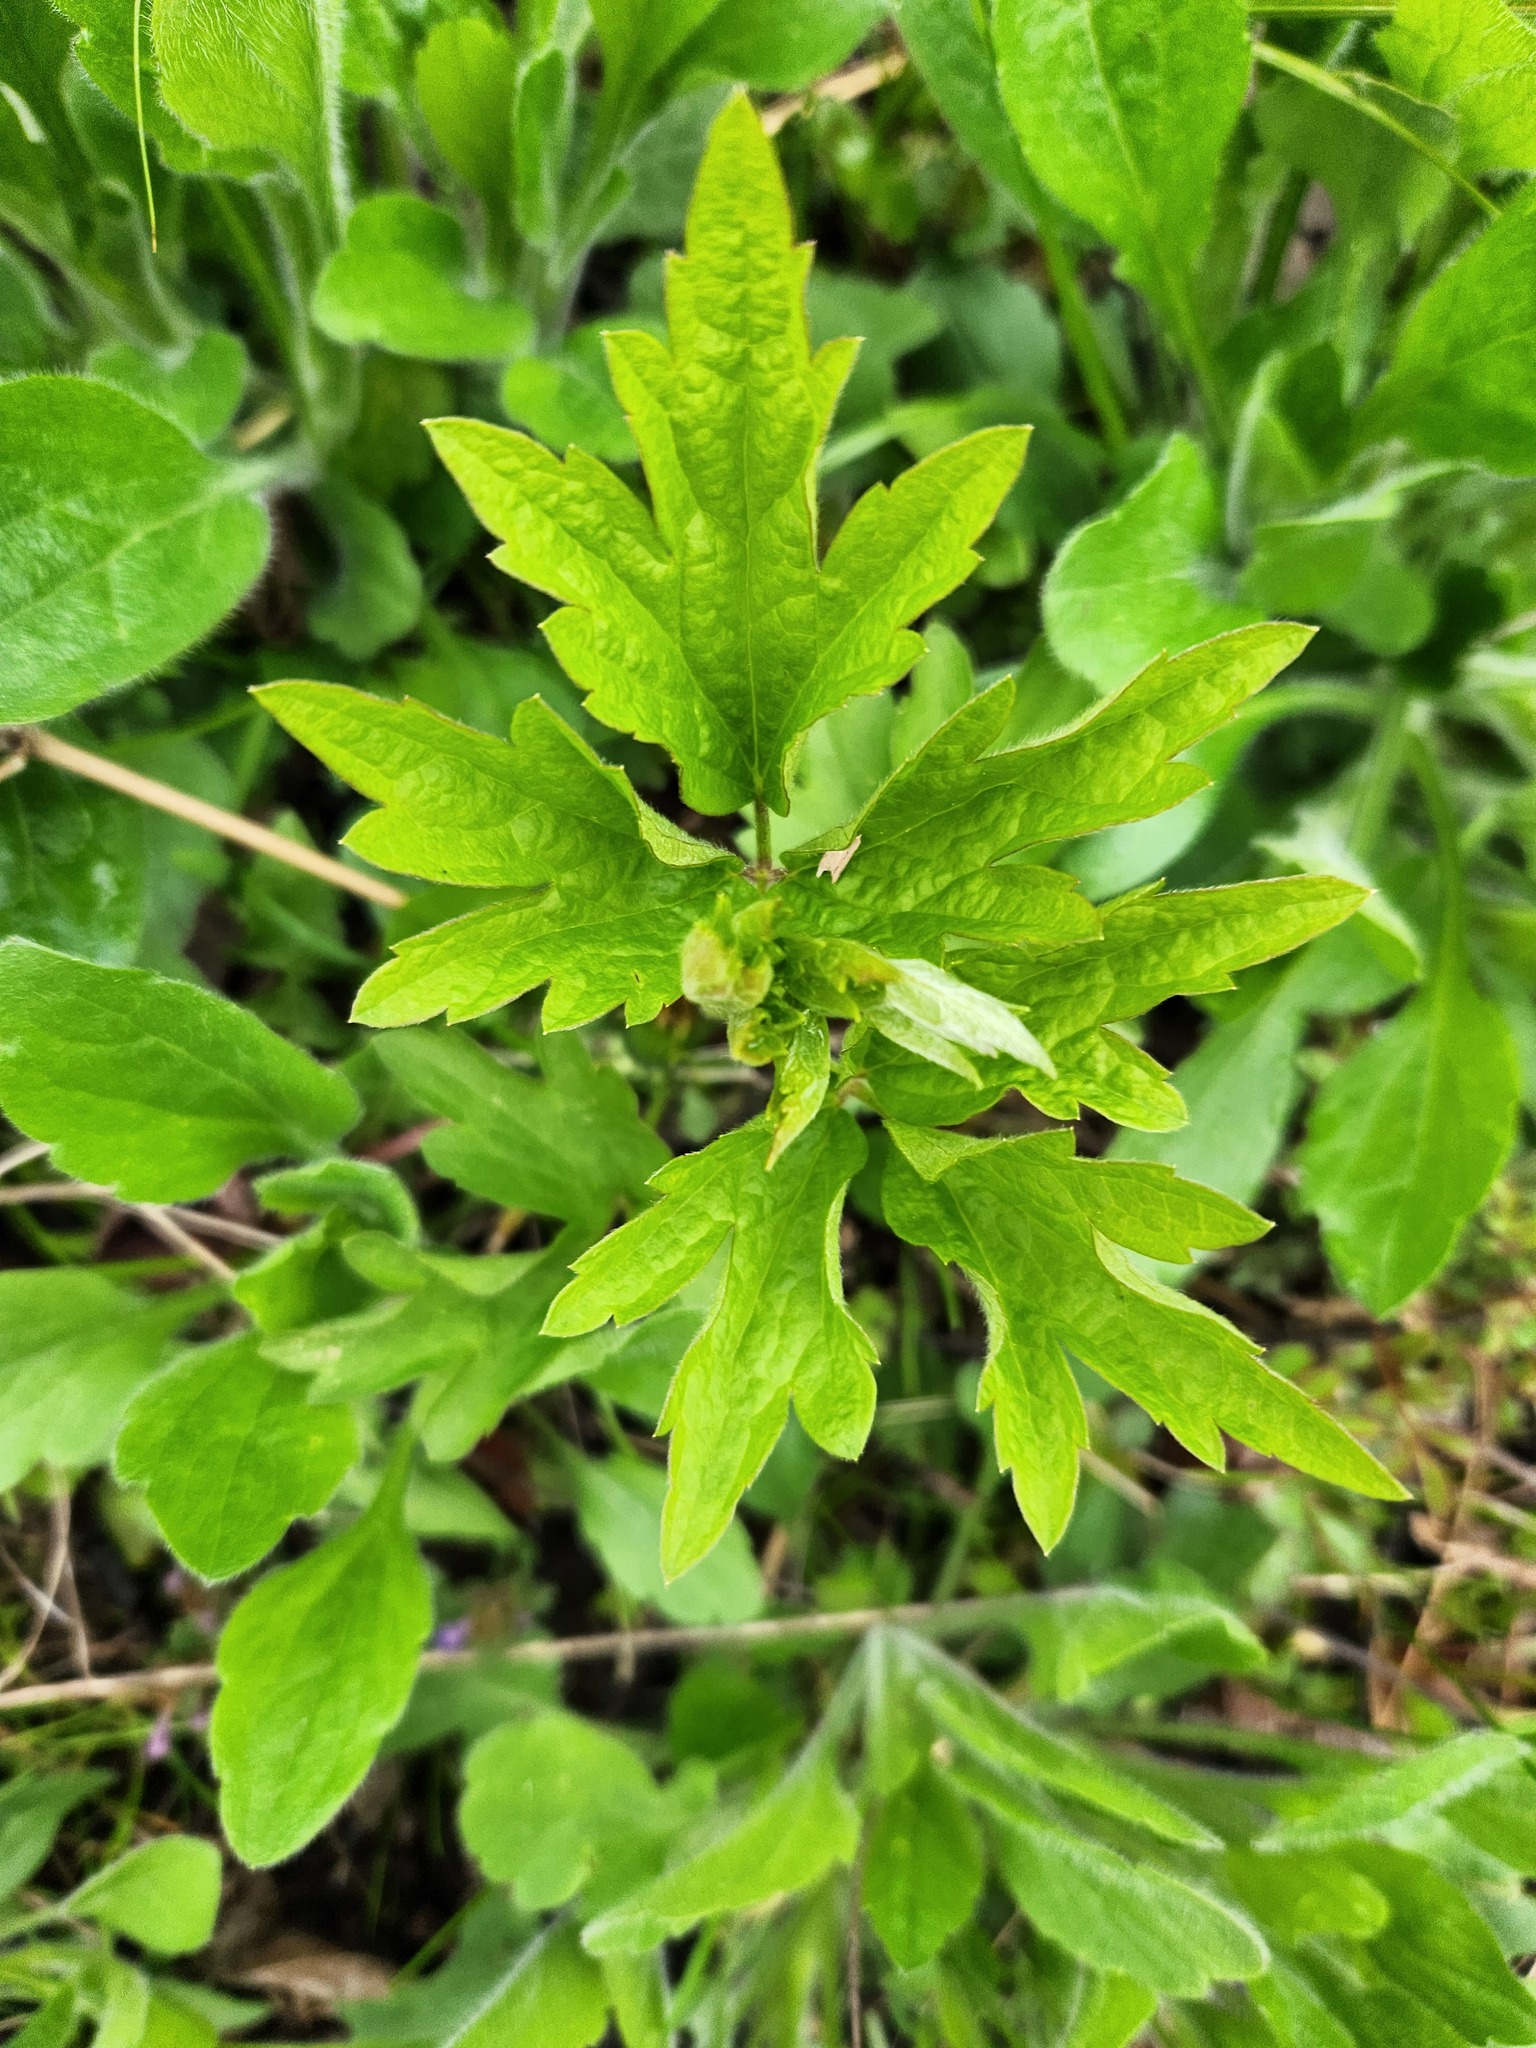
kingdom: Plantae
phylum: Tracheophyta
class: Magnoliopsida
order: Asterales
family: Asteraceae
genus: Artemisia
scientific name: Artemisia vulgaris
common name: Mugwort
